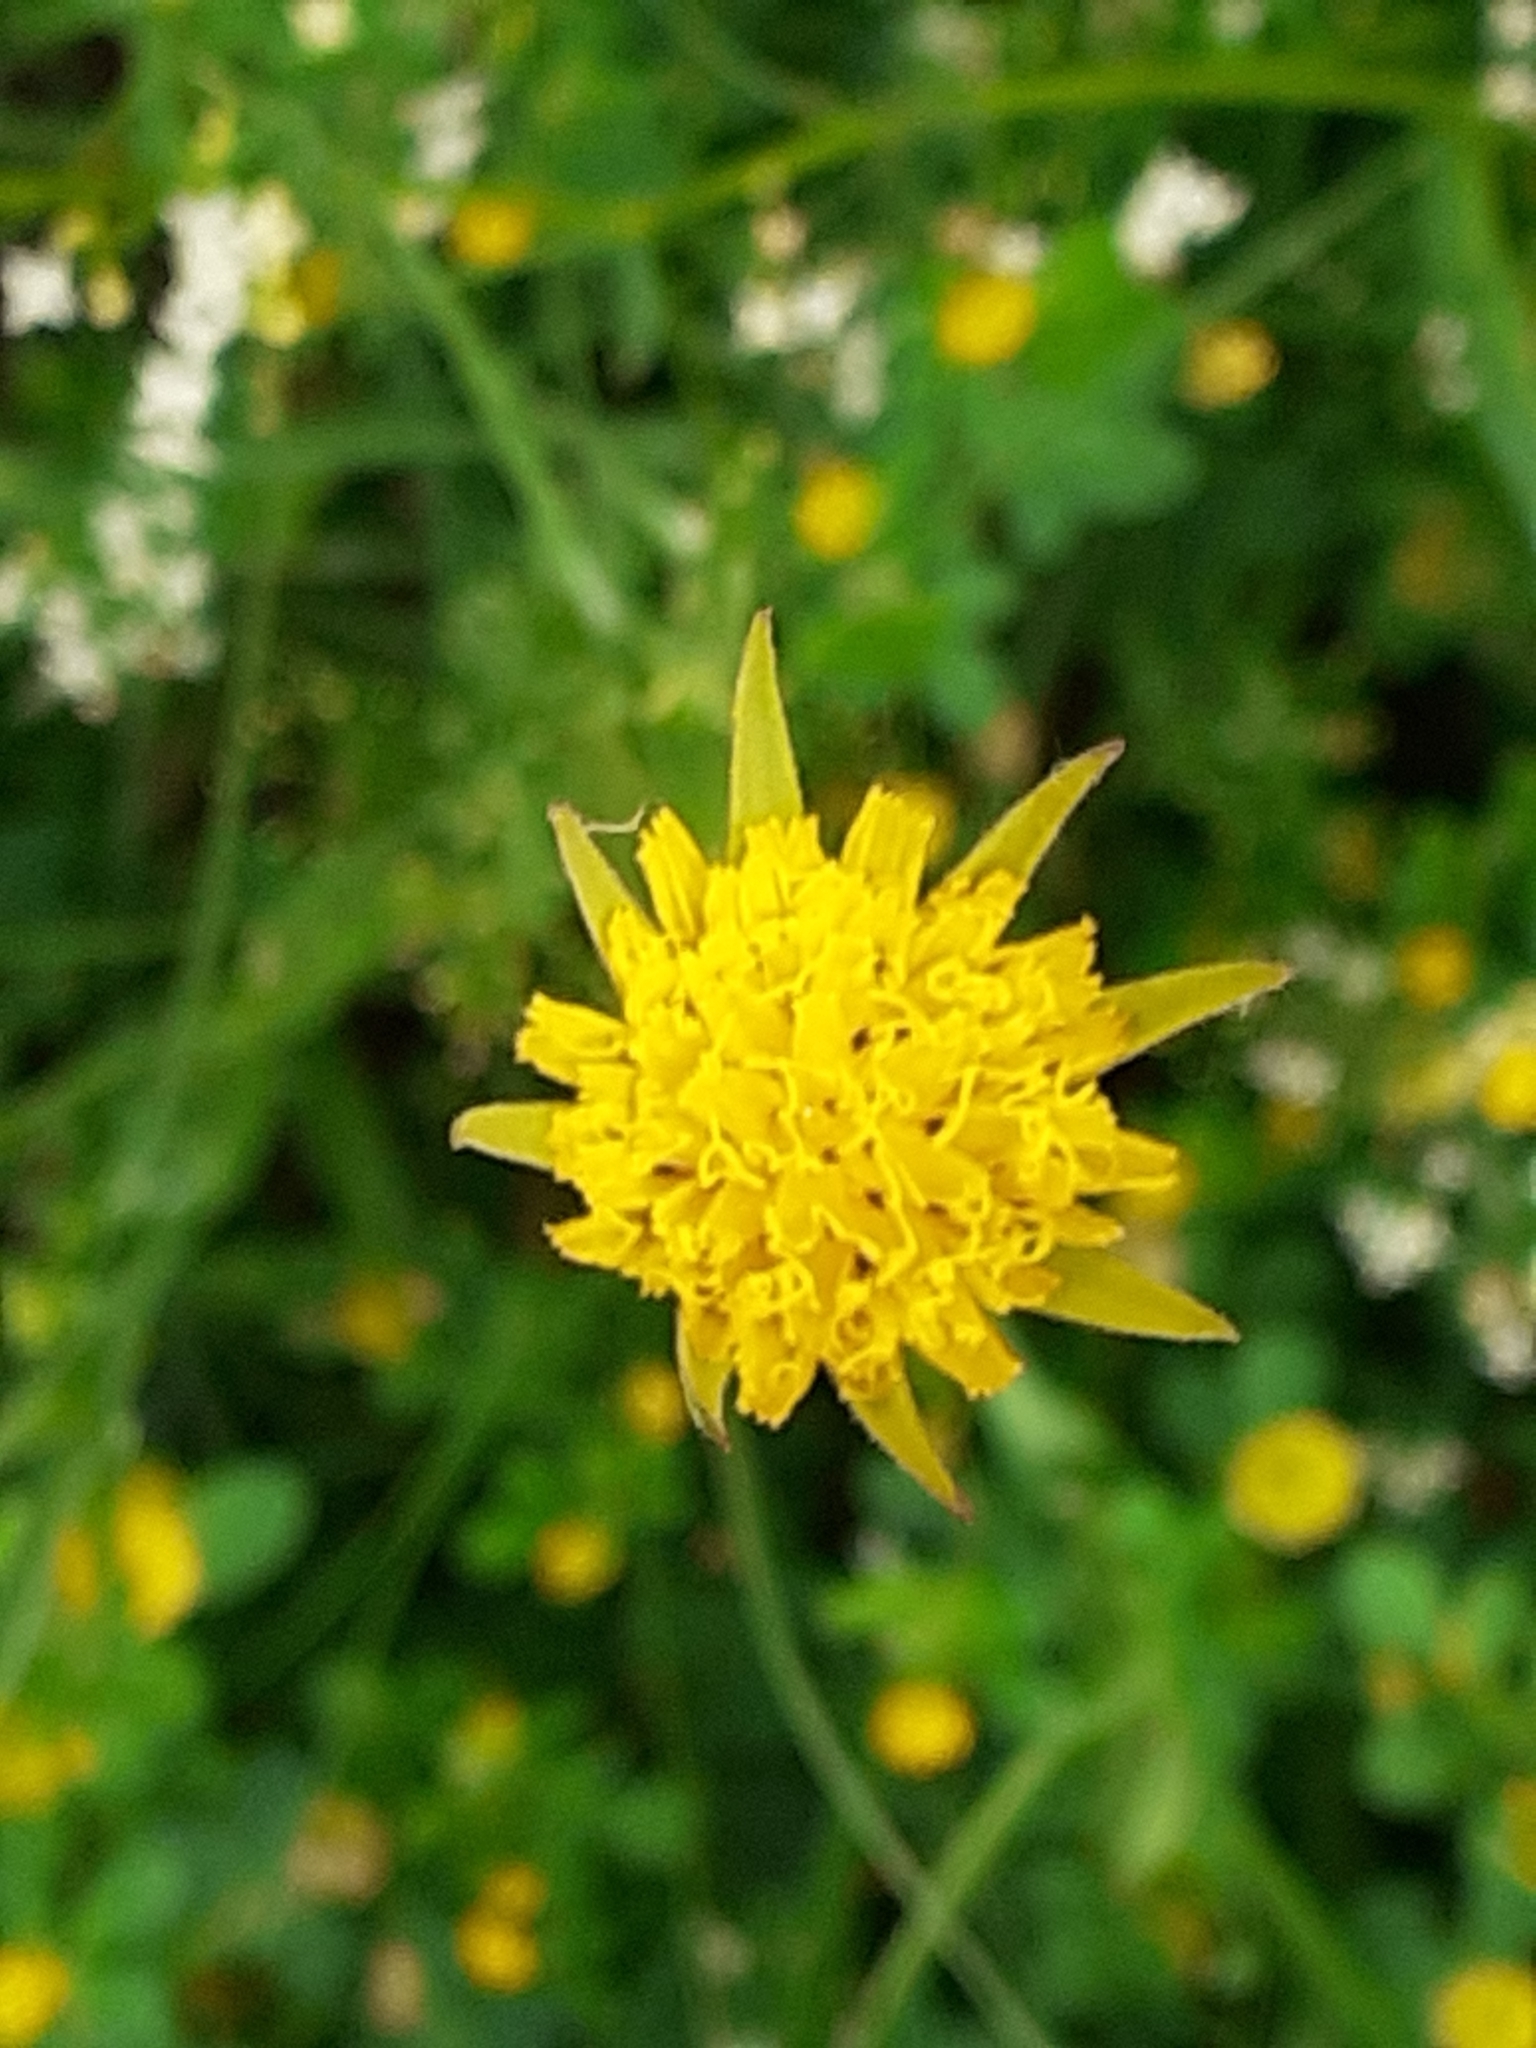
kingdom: Plantae
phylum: Tracheophyta
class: Magnoliopsida
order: Asterales
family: Asteraceae
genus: Tragopogon
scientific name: Tragopogon pratensis
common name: Goat's-beard
